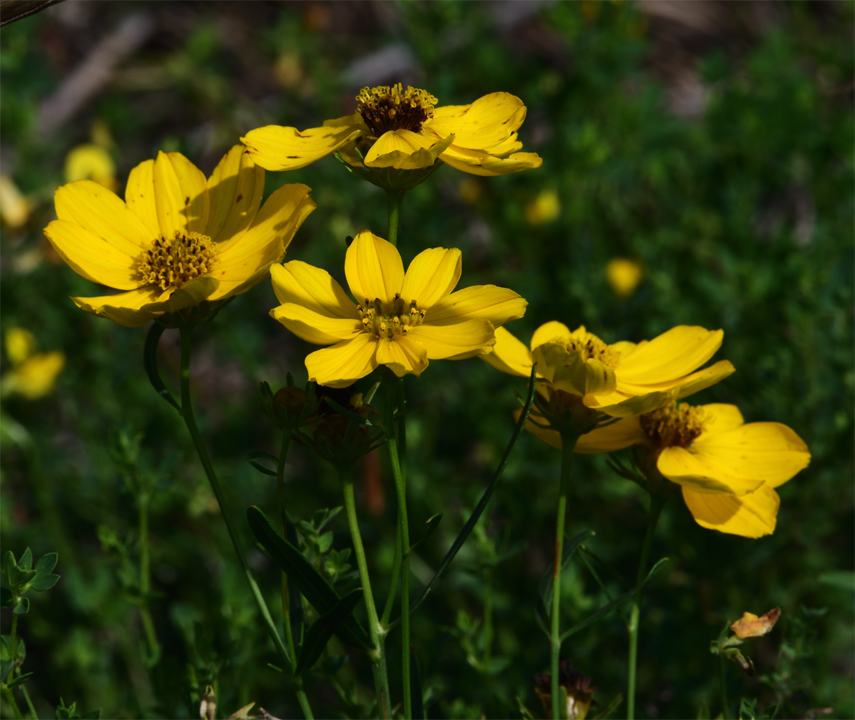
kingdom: Plantae
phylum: Tracheophyta
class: Magnoliopsida
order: Asterales
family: Asteraceae
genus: Coreopsis
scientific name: Coreopsis palmata
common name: Prairie coreopsis
